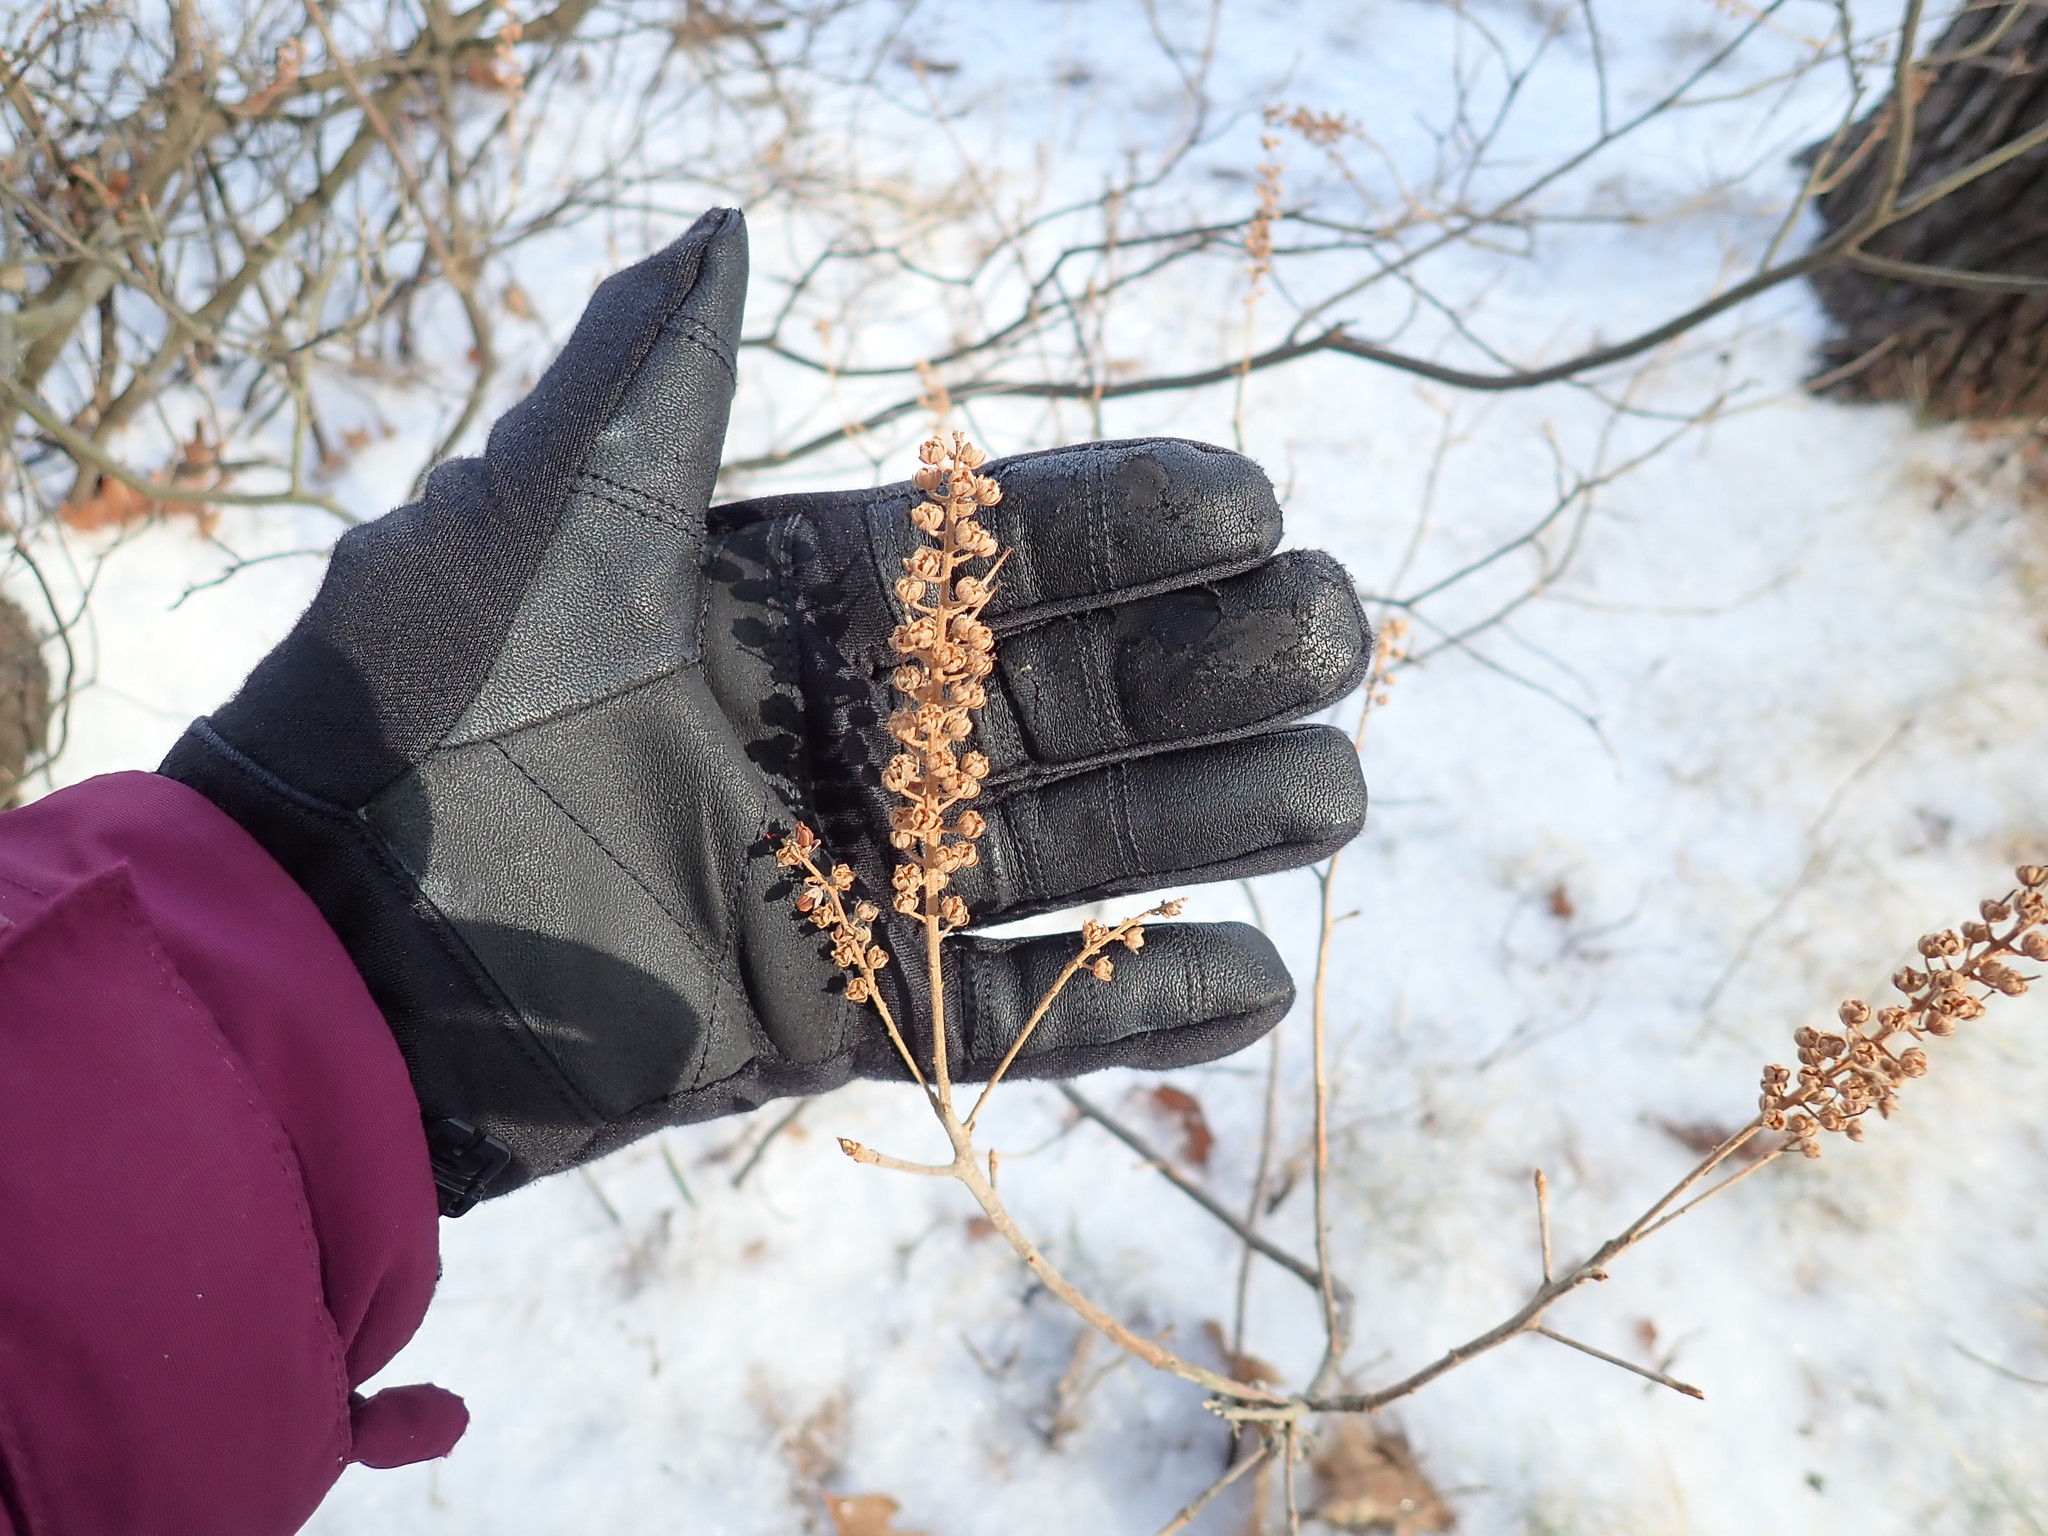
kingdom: Plantae
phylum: Tracheophyta
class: Magnoliopsida
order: Ericales
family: Clethraceae
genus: Clethra
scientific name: Clethra alnifolia
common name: Sweet pepperbush
